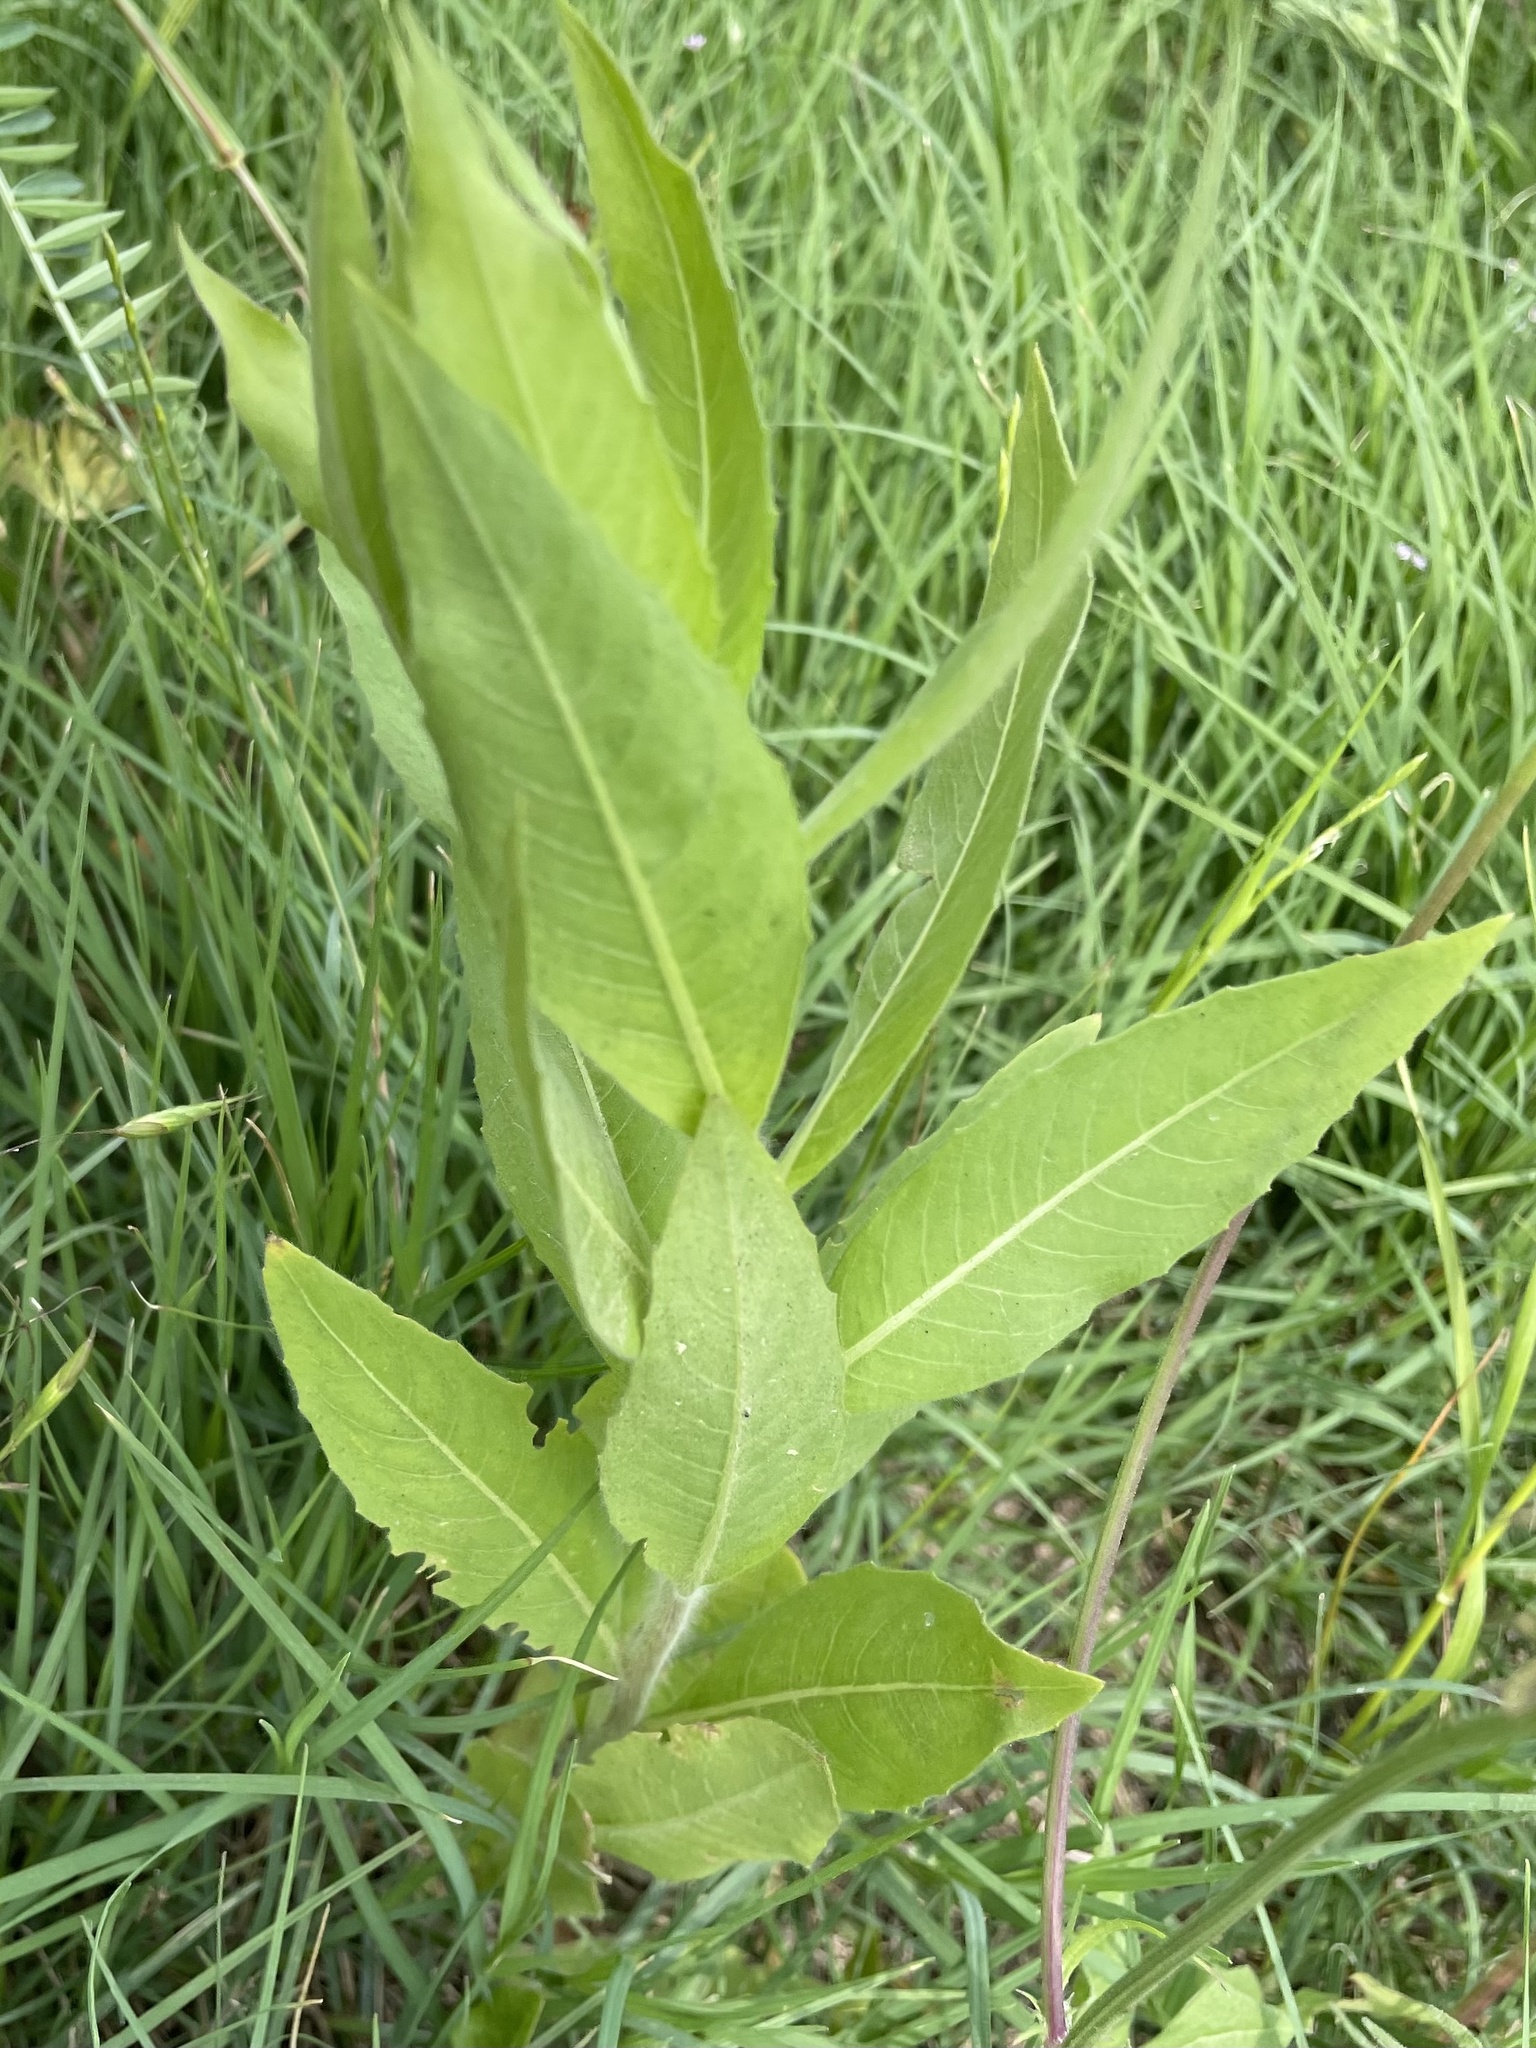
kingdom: Plantae
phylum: Tracheophyta
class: Magnoliopsida
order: Myrtales
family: Onagraceae
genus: Oenothera
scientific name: Oenothera curtiflora
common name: Velvetweed
